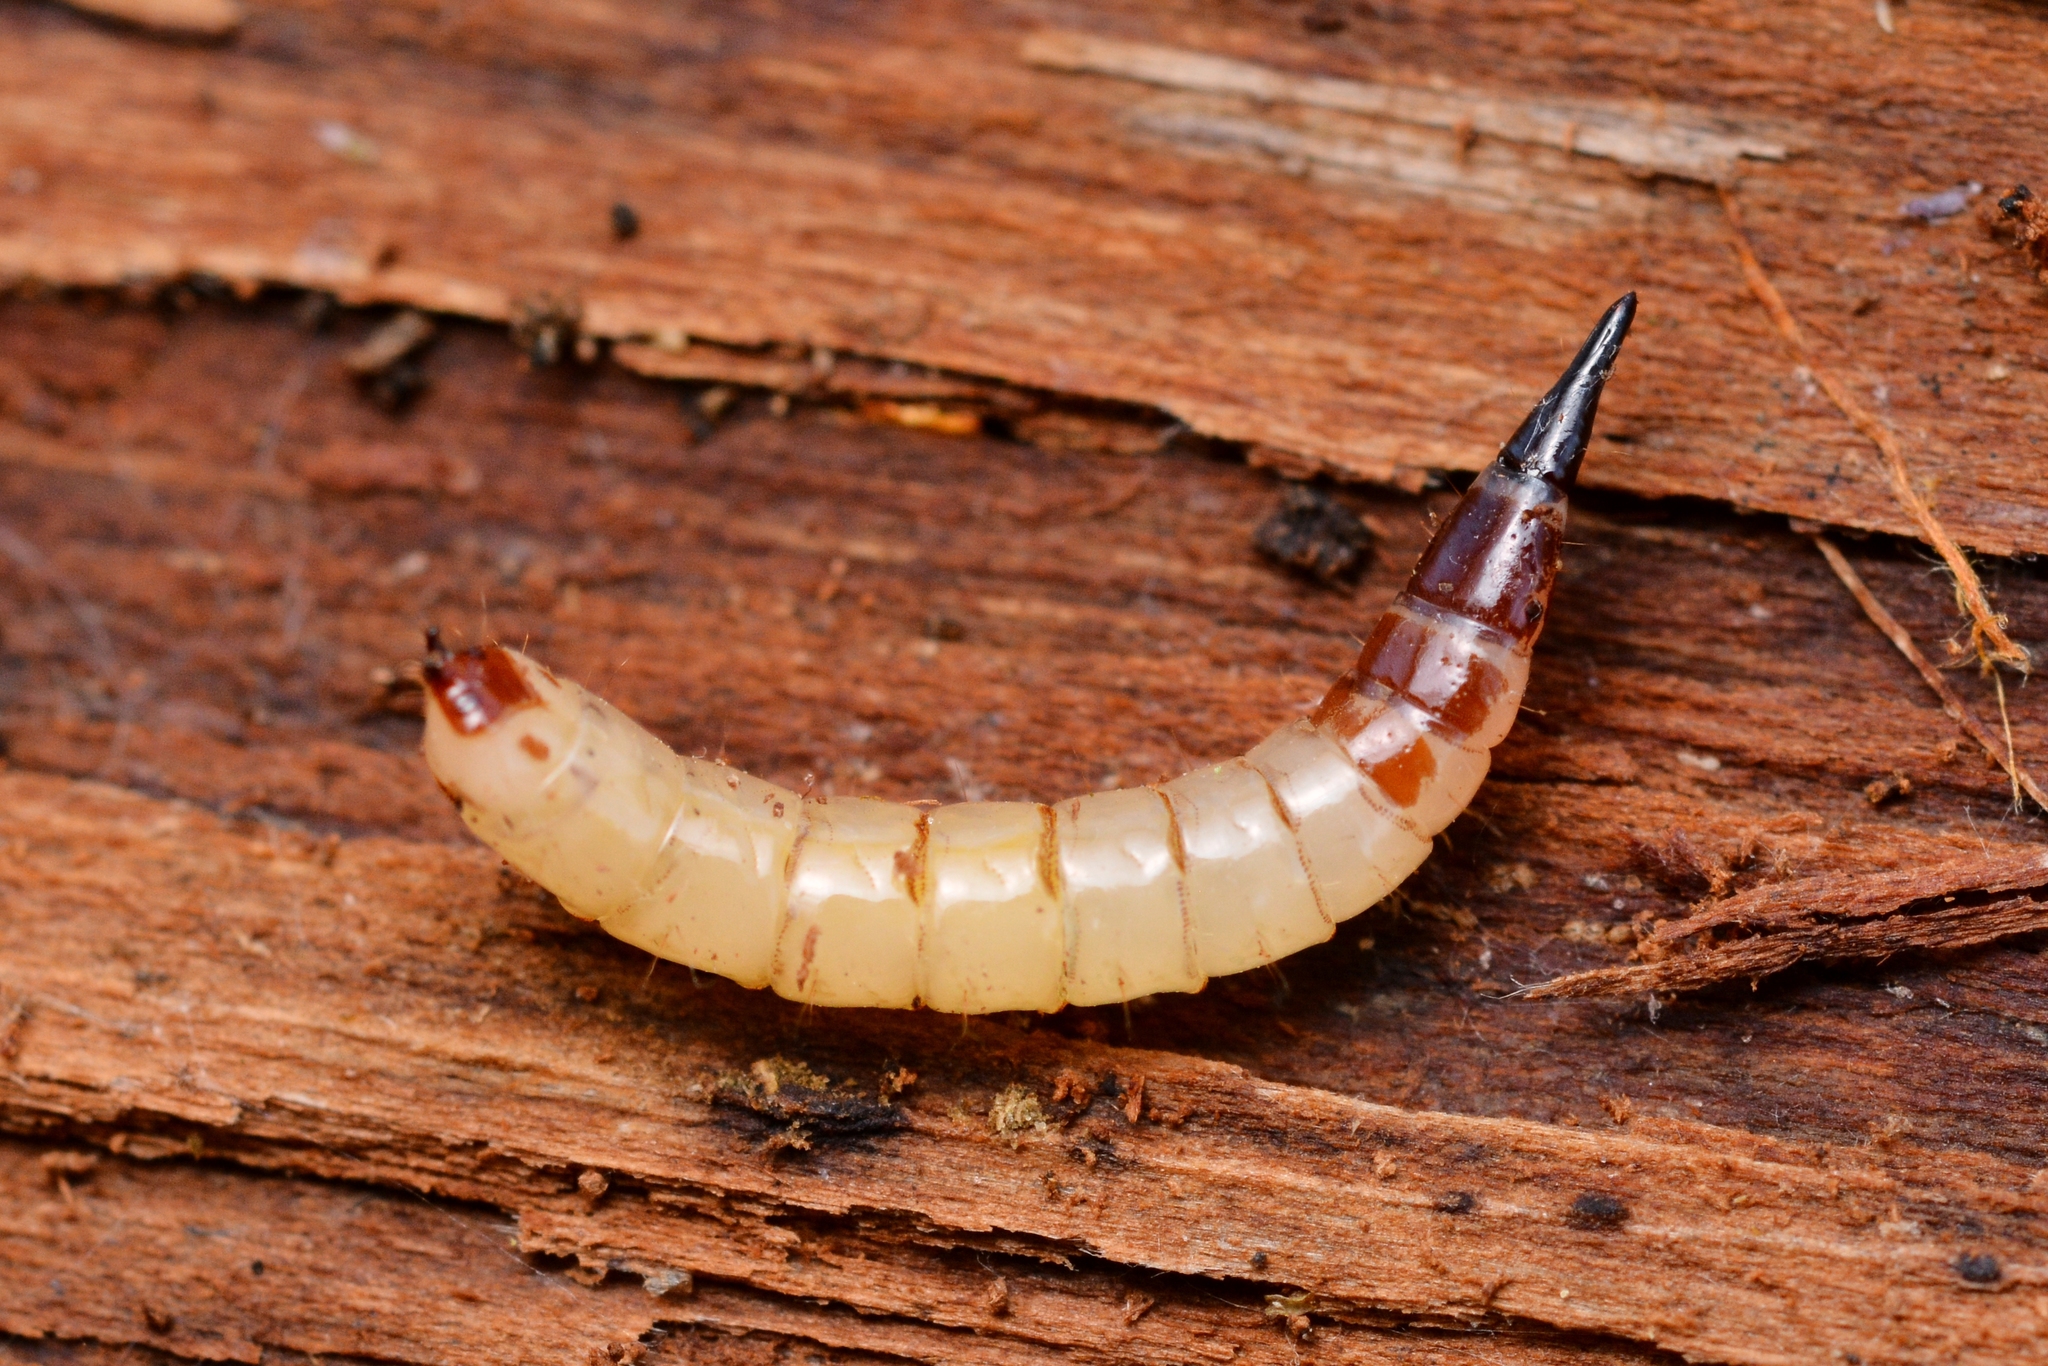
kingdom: Animalia
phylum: Arthropoda
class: Insecta
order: Diptera
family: Xylophagidae
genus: Xylophagus
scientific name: Xylophagus
